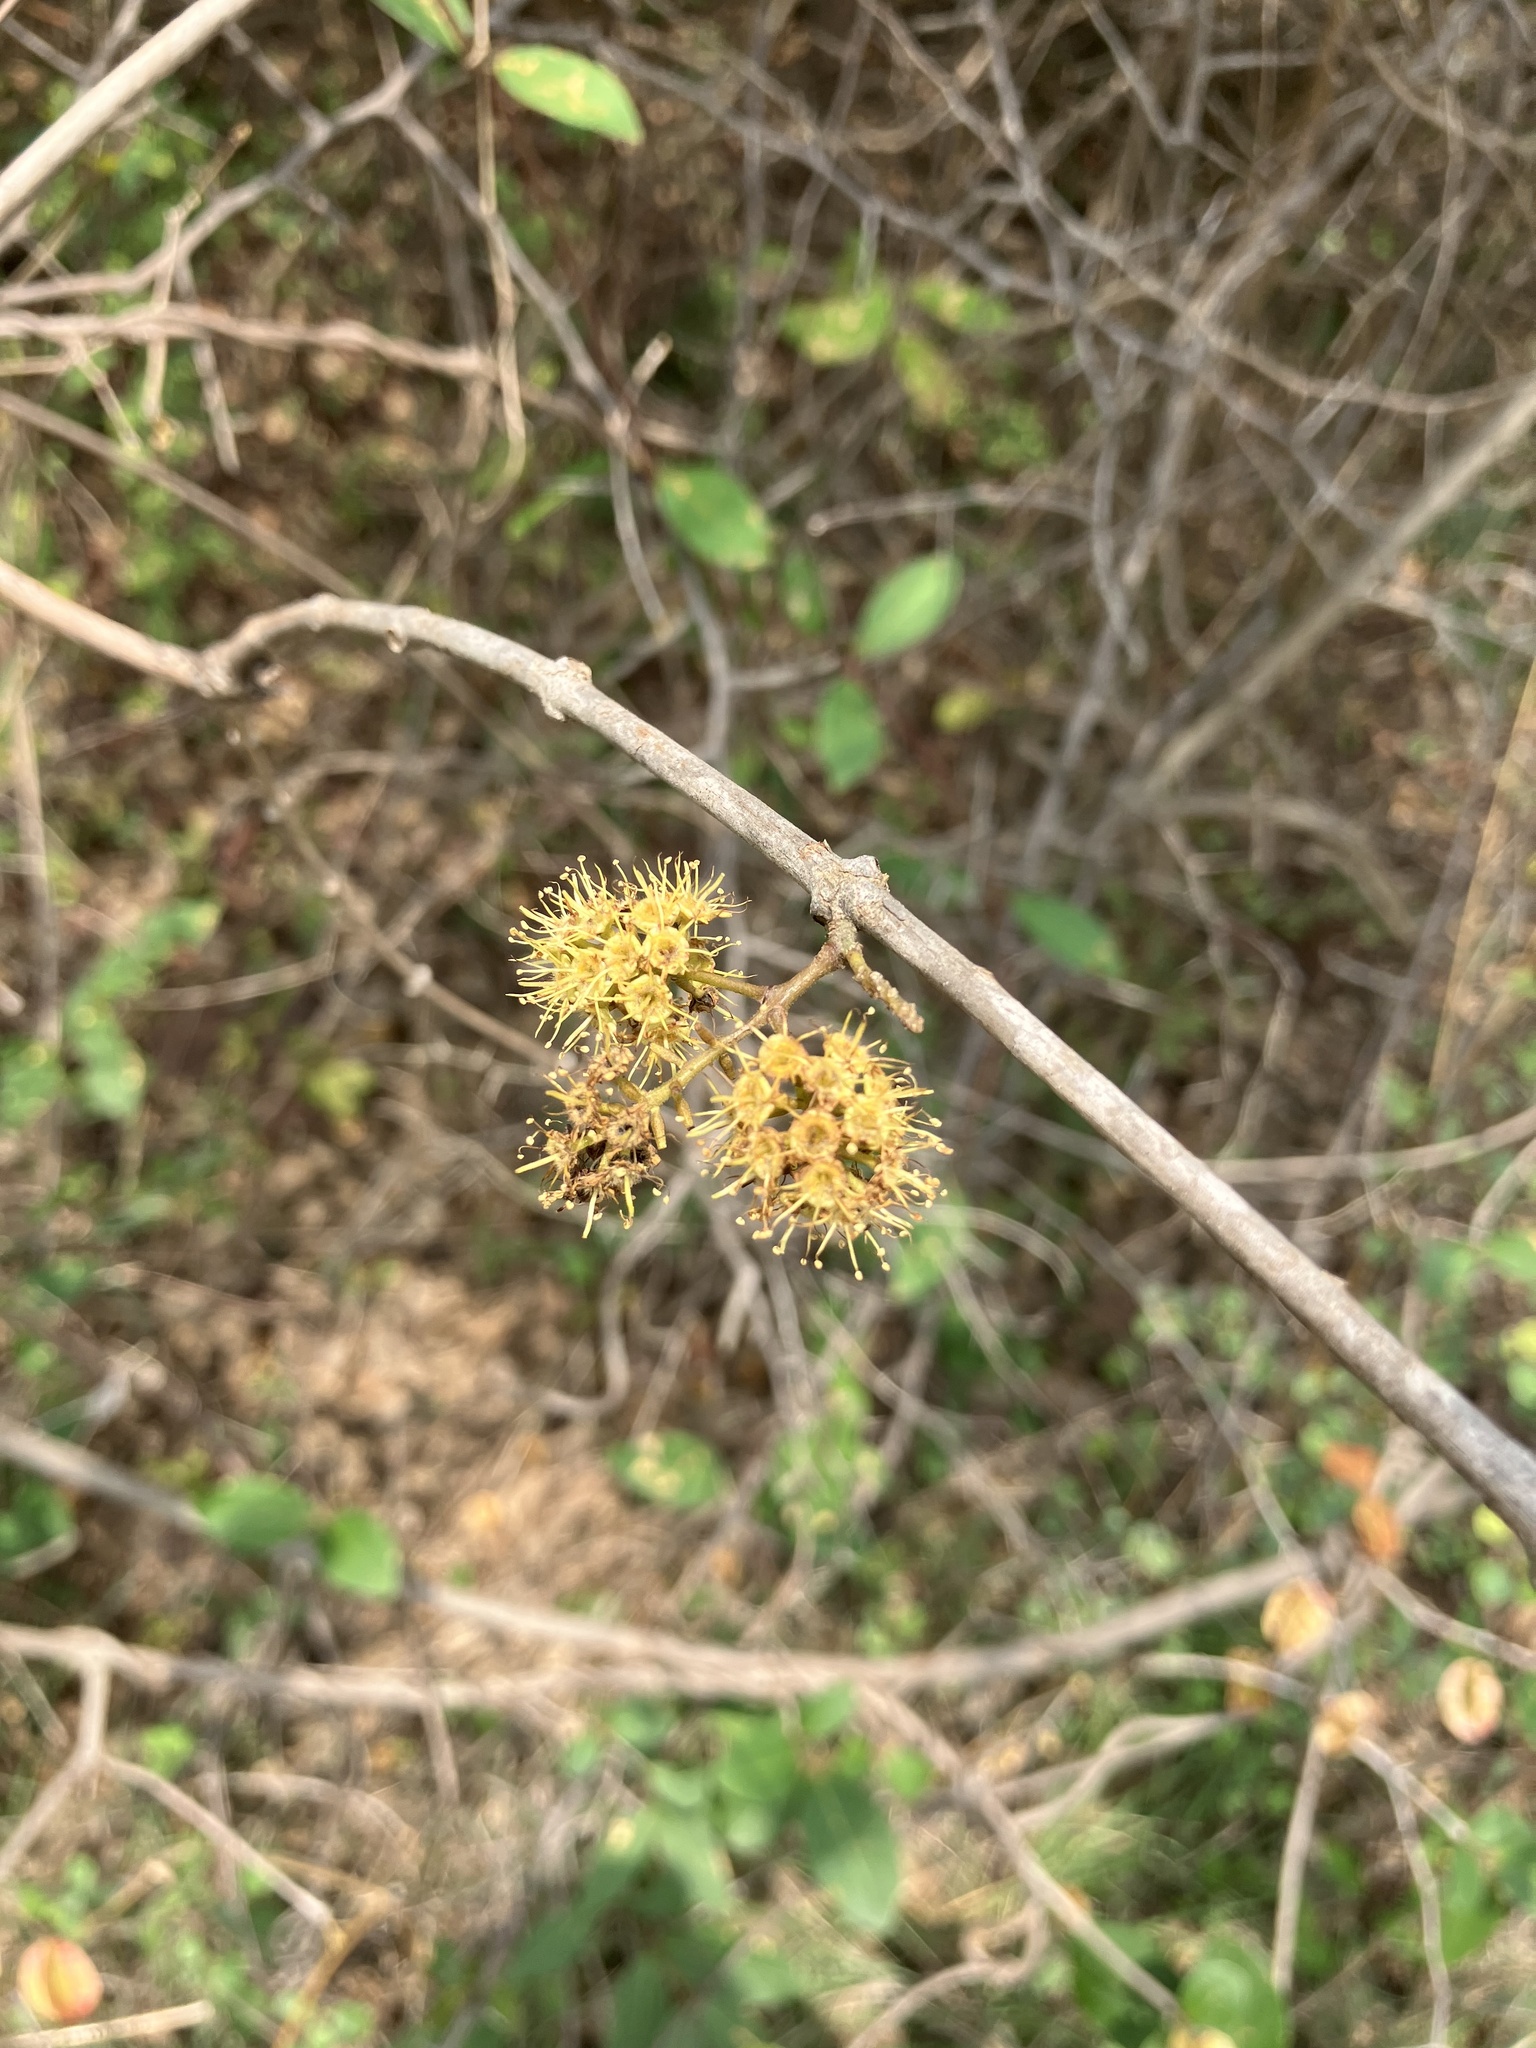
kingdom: Plantae
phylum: Tracheophyta
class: Magnoliopsida
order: Myrtales
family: Combretaceae
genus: Combretum
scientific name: Combretum albidum
